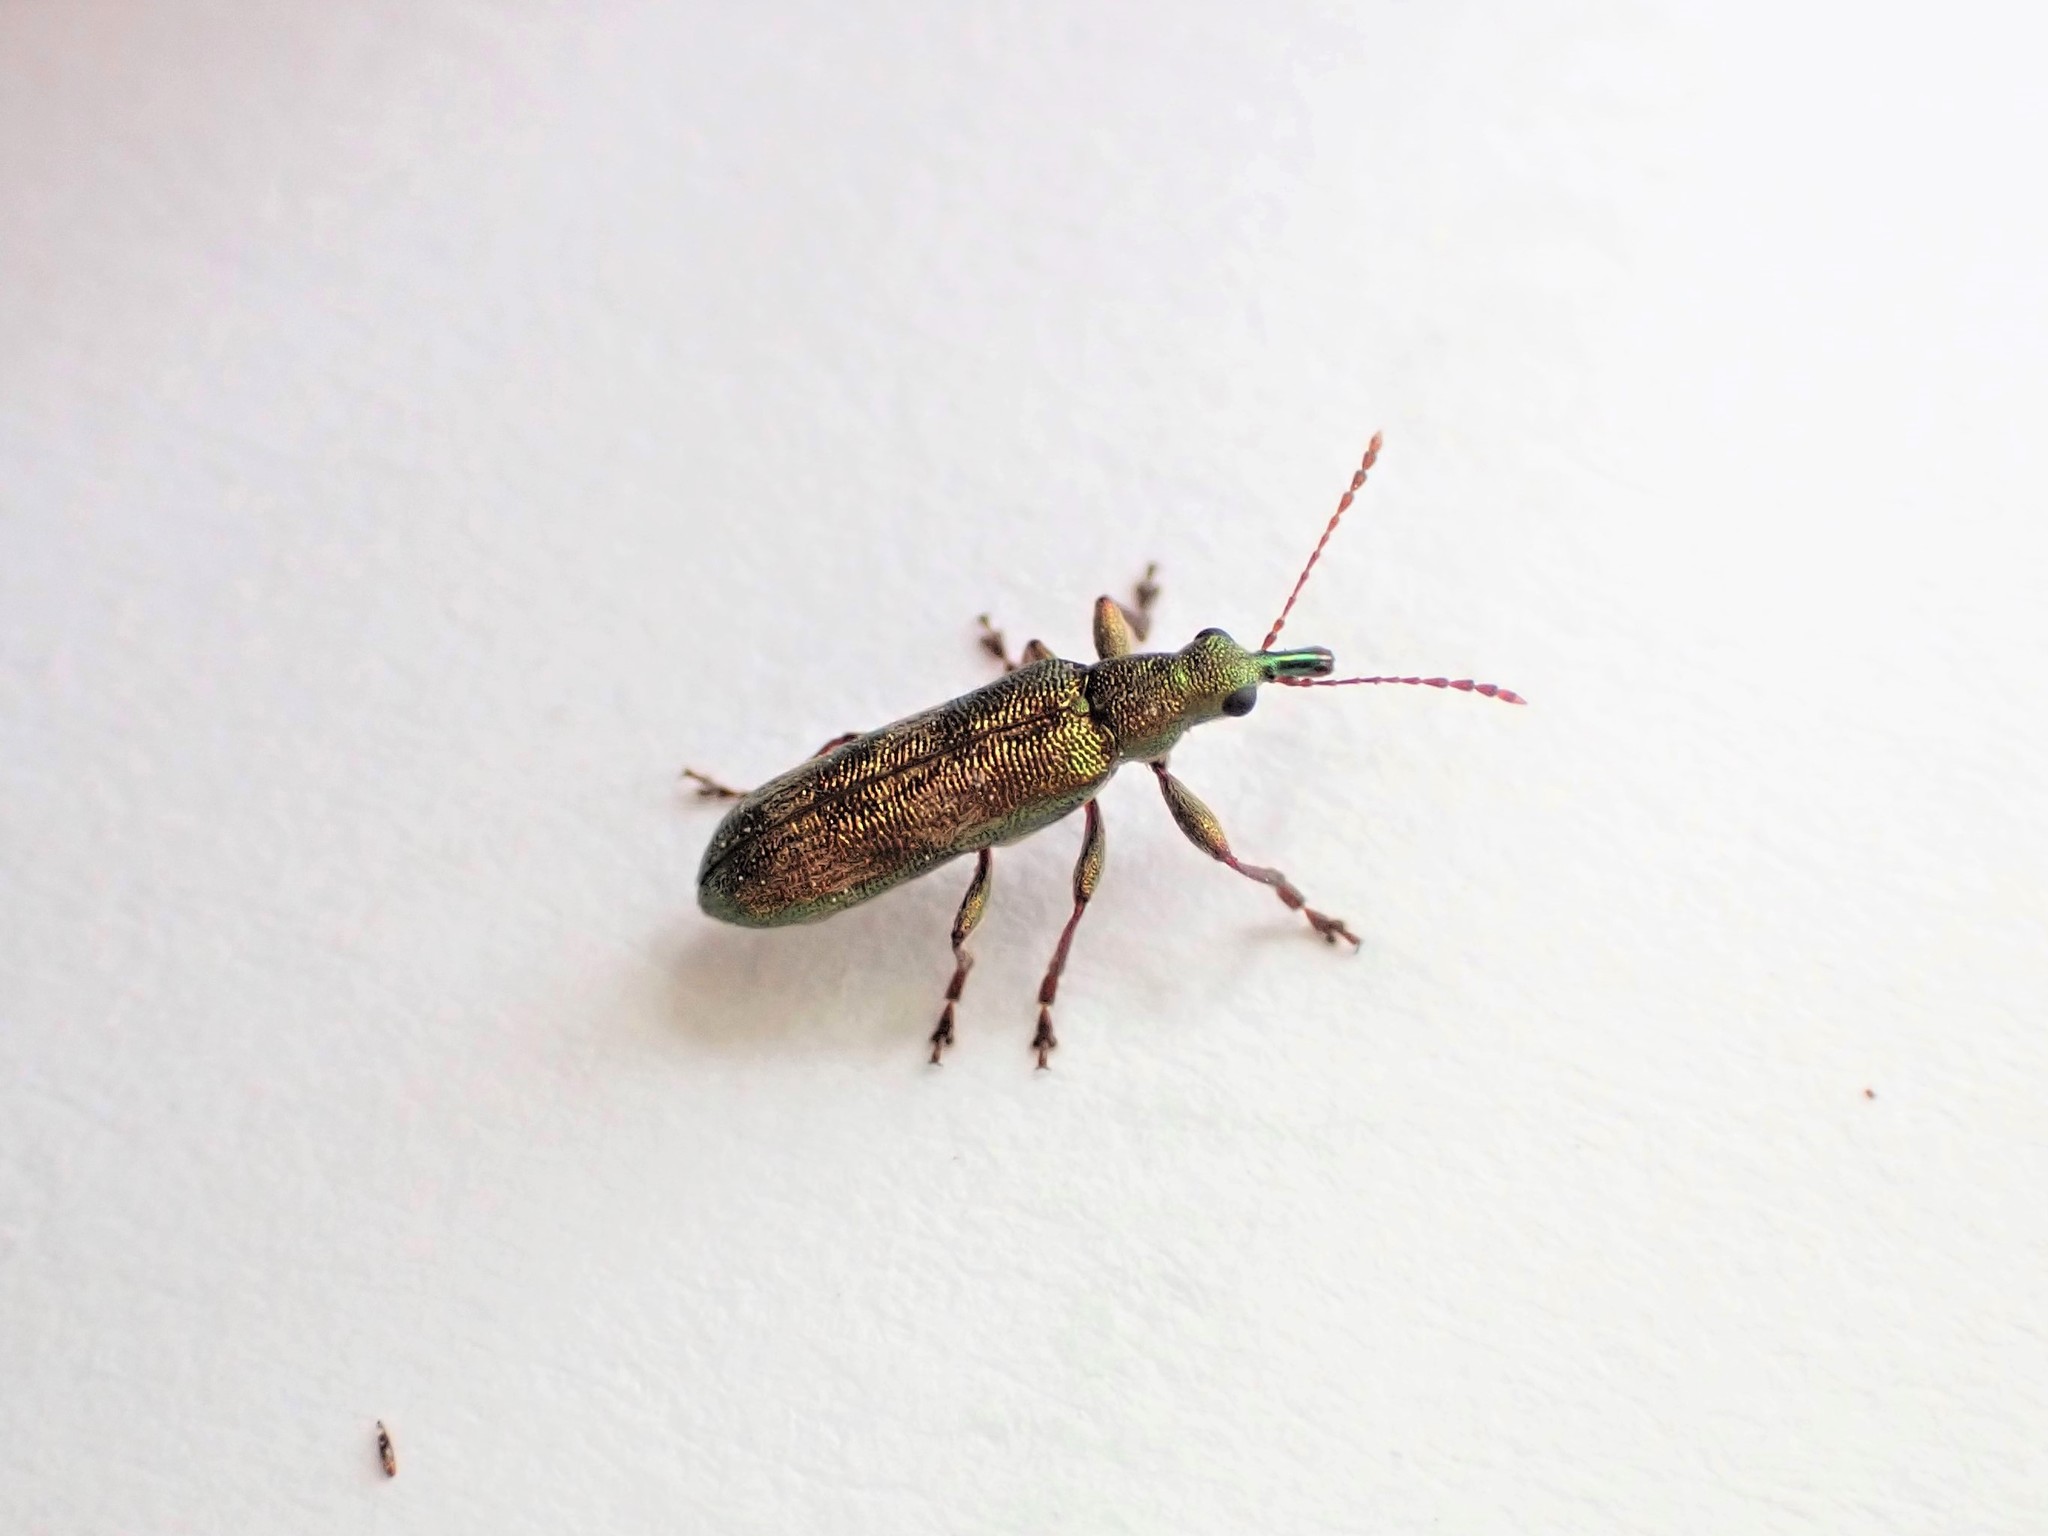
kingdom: Animalia
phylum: Arthropoda
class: Insecta
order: Coleoptera
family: Belidae
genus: Rhicnobelus
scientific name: Rhicnobelus
